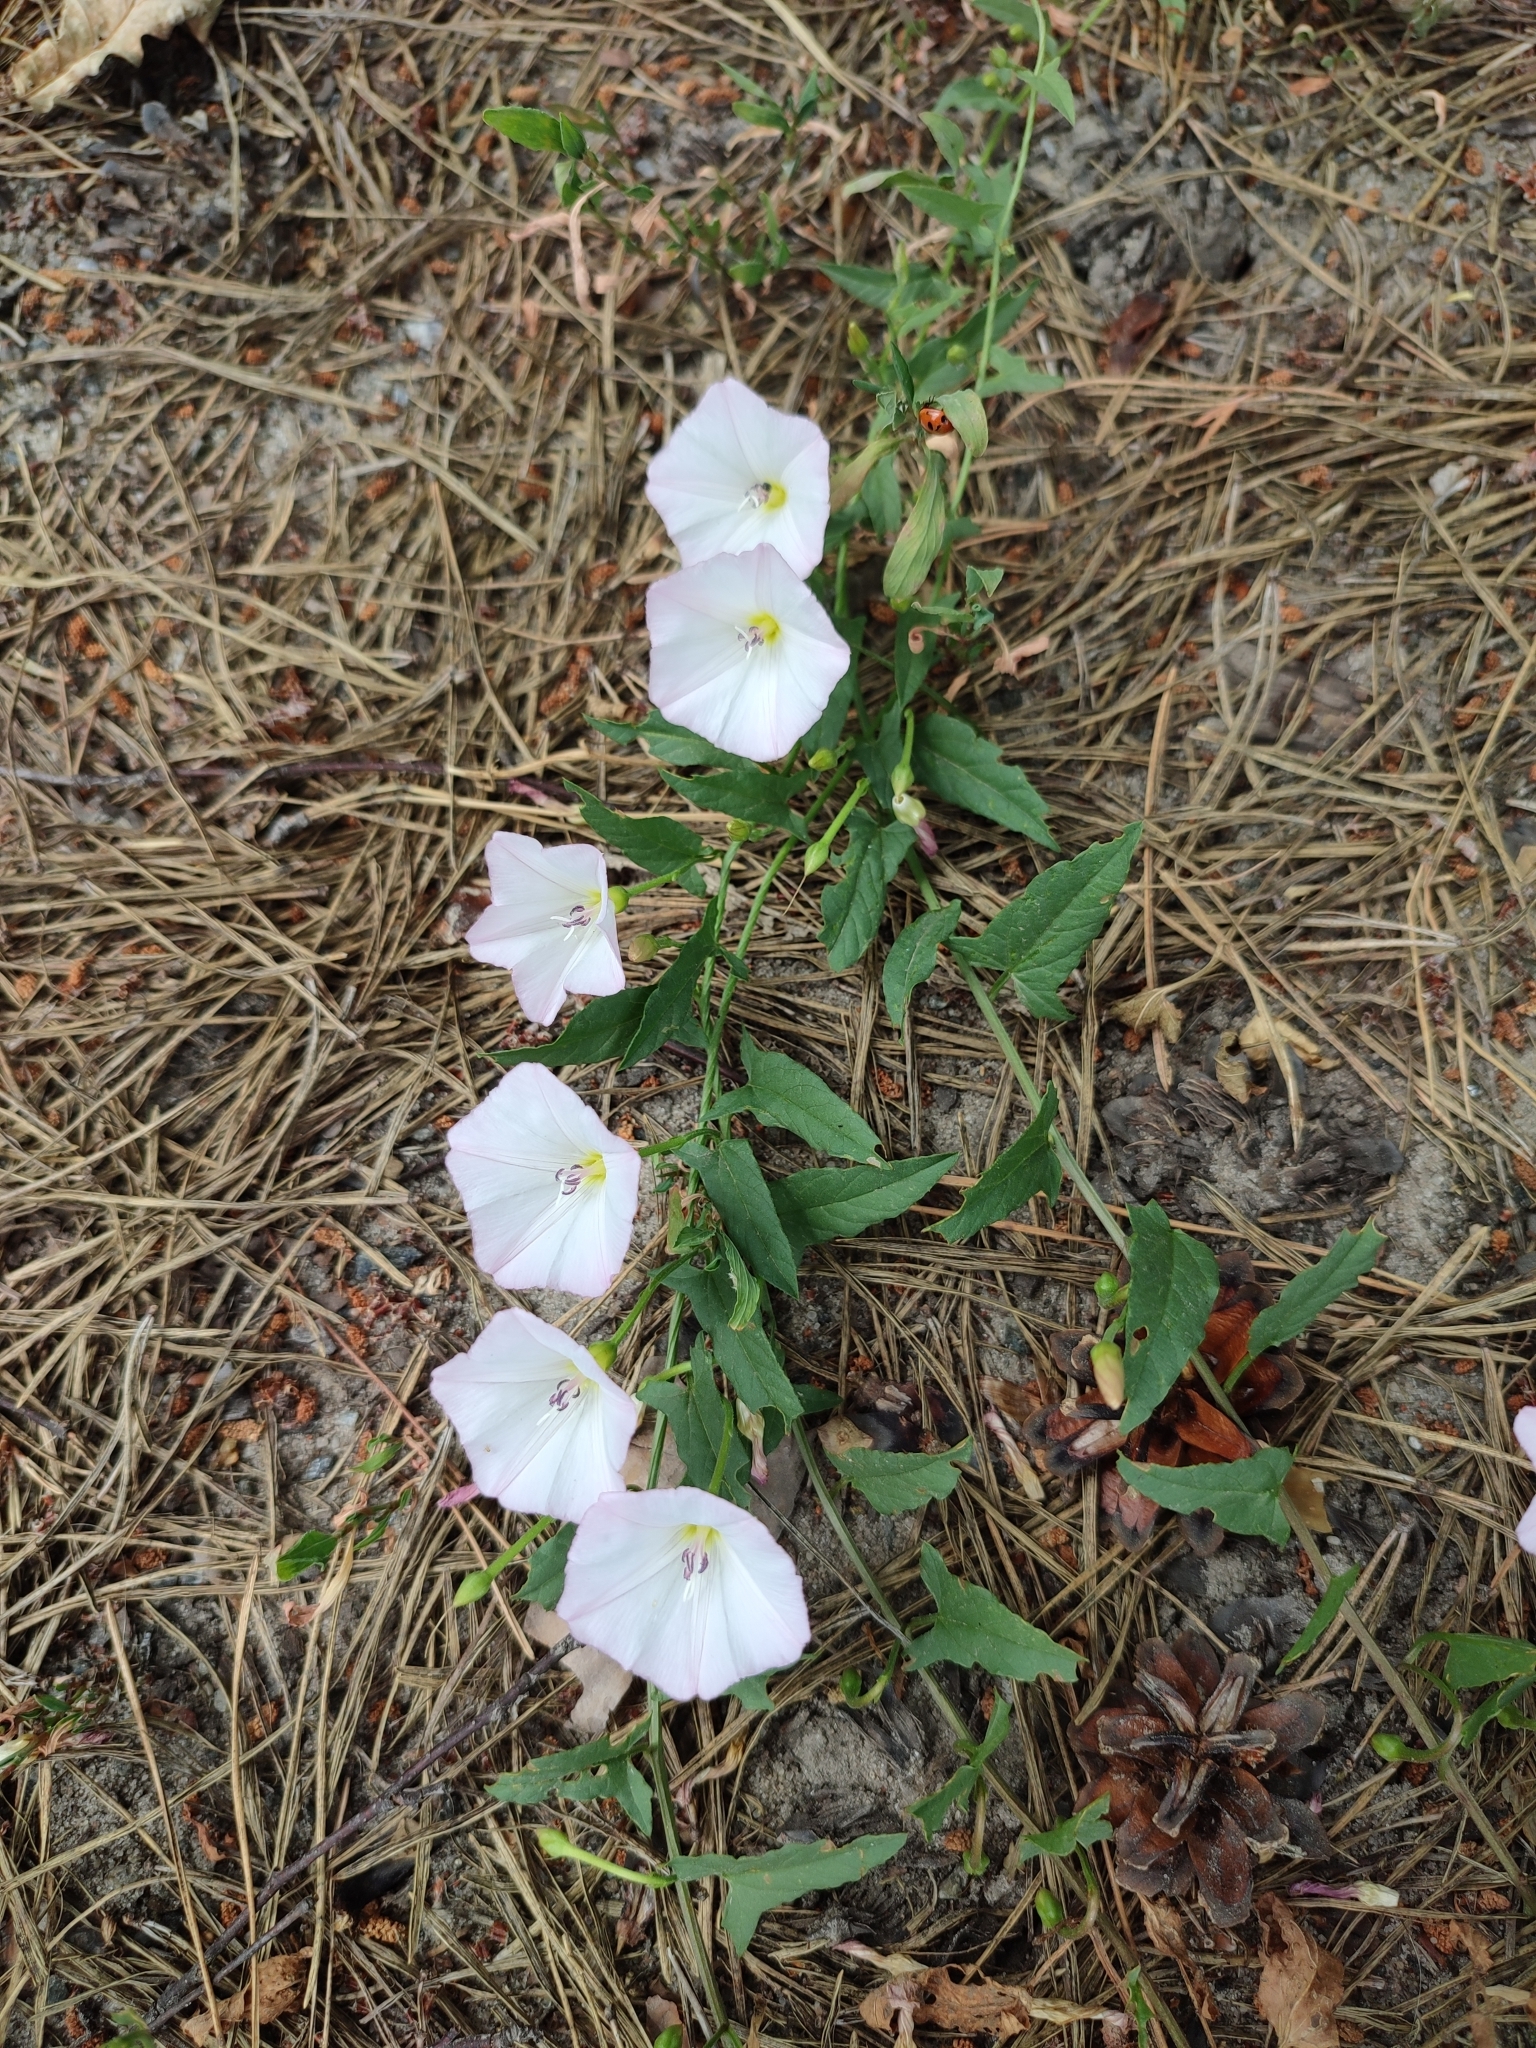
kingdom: Plantae
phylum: Tracheophyta
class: Magnoliopsida
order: Solanales
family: Convolvulaceae
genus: Convolvulus
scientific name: Convolvulus arvensis
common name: Field bindweed
